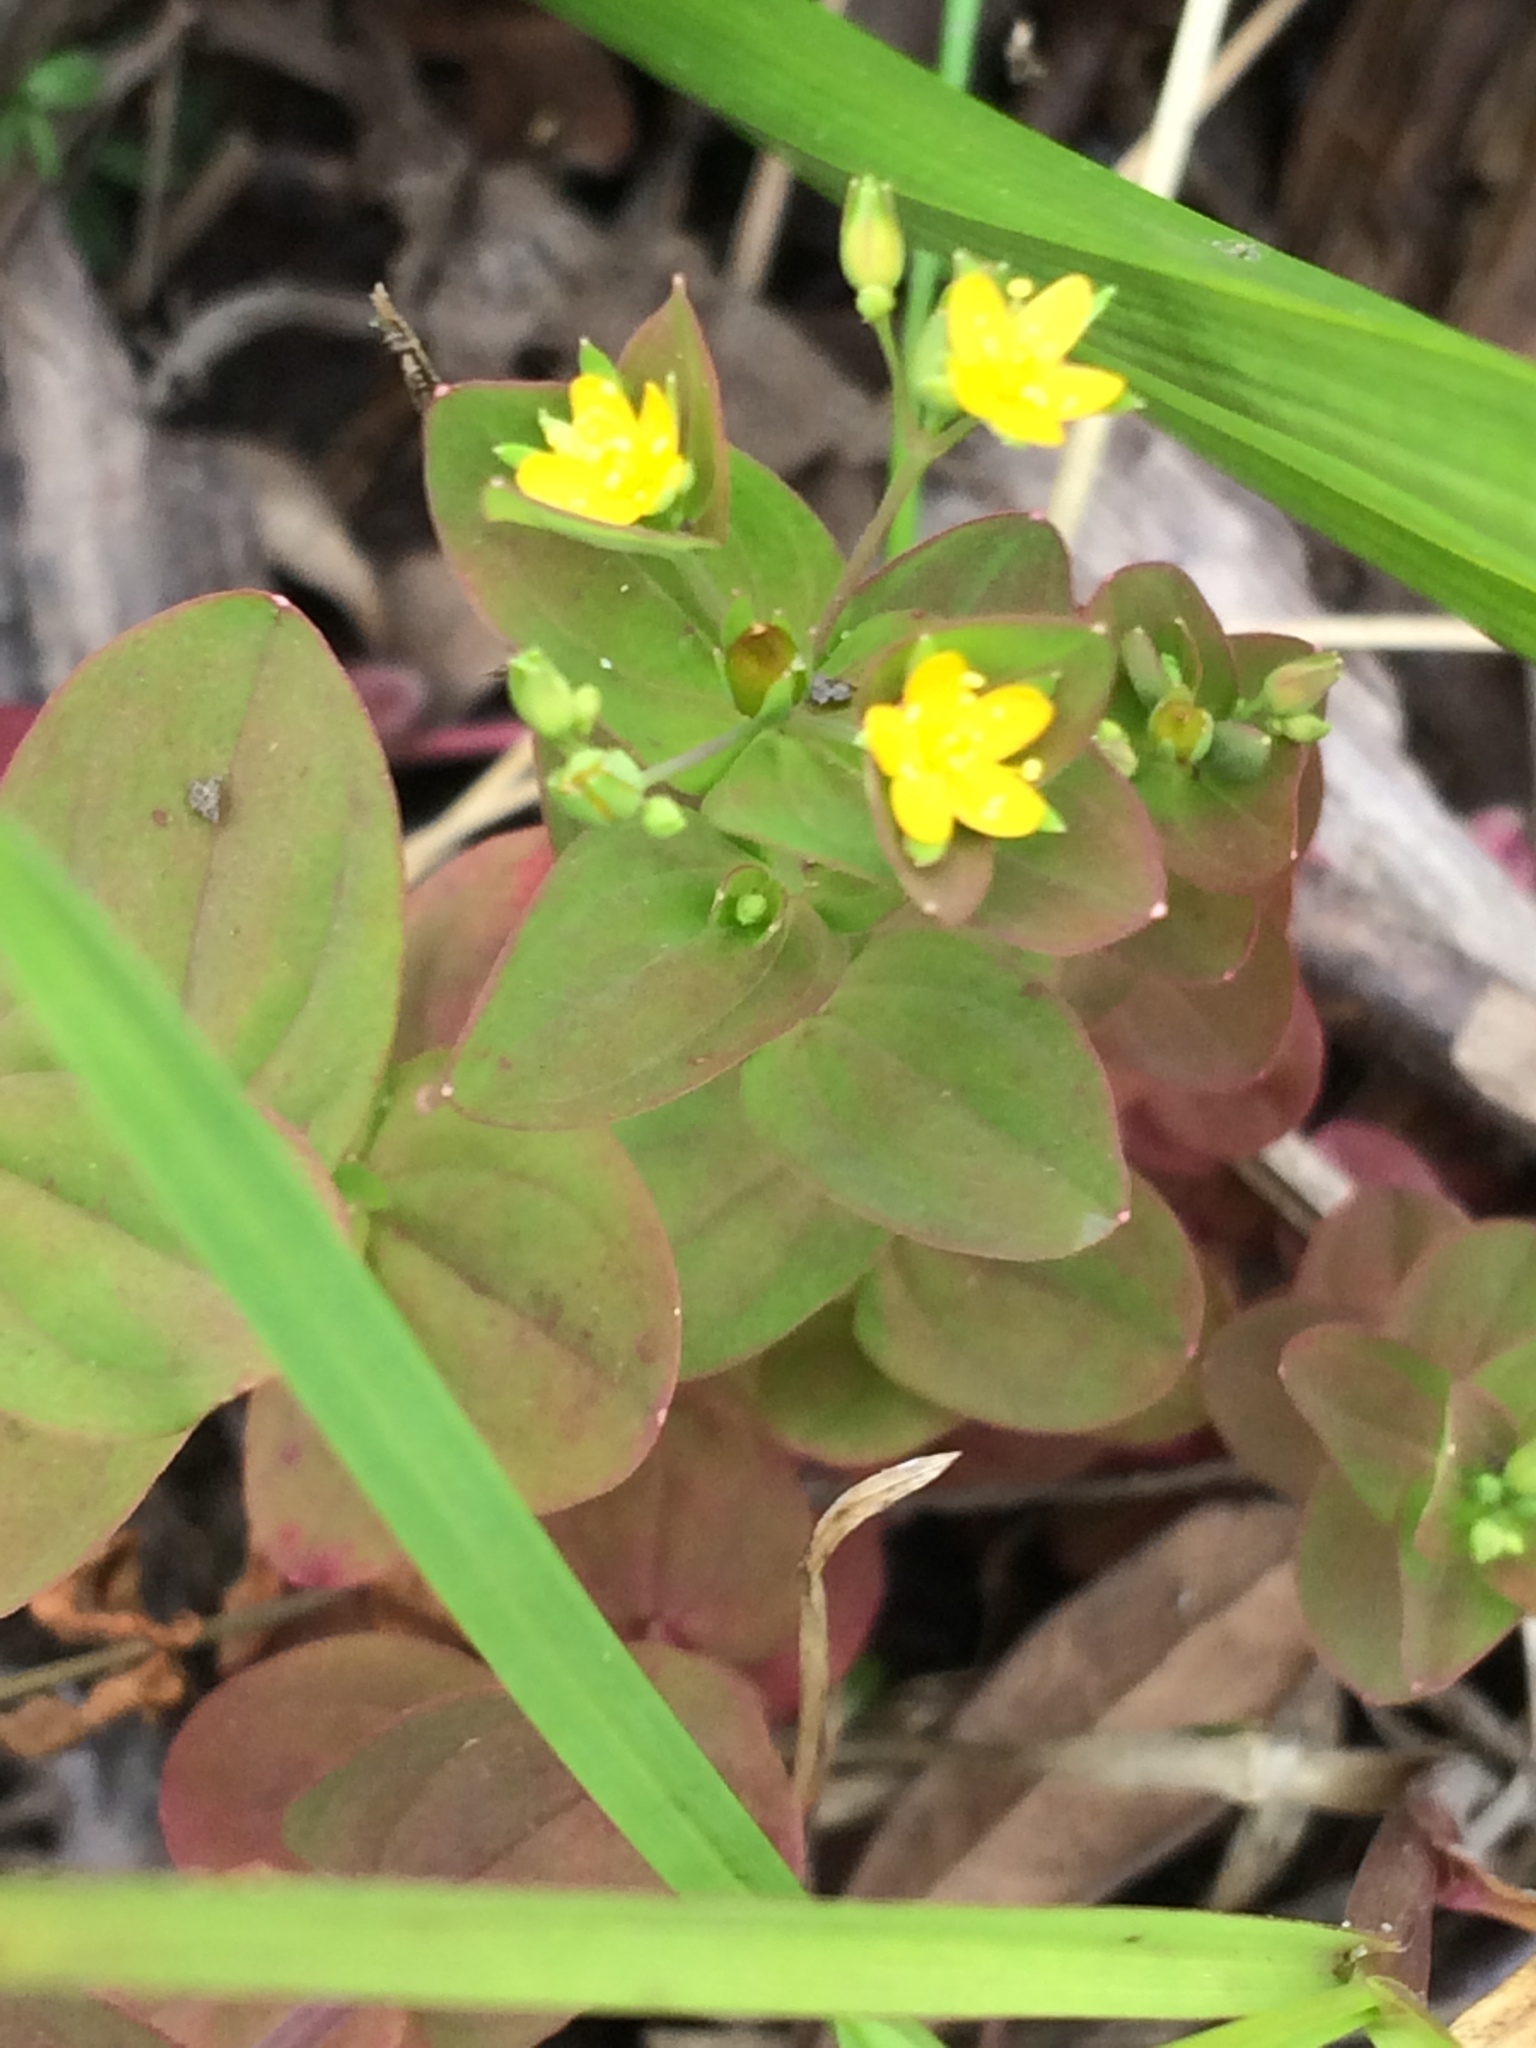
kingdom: Plantae
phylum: Tracheophyta
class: Magnoliopsida
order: Malpighiales
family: Hypericaceae
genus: Hypericum
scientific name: Hypericum boreale
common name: Northern bog st. john's-wort
